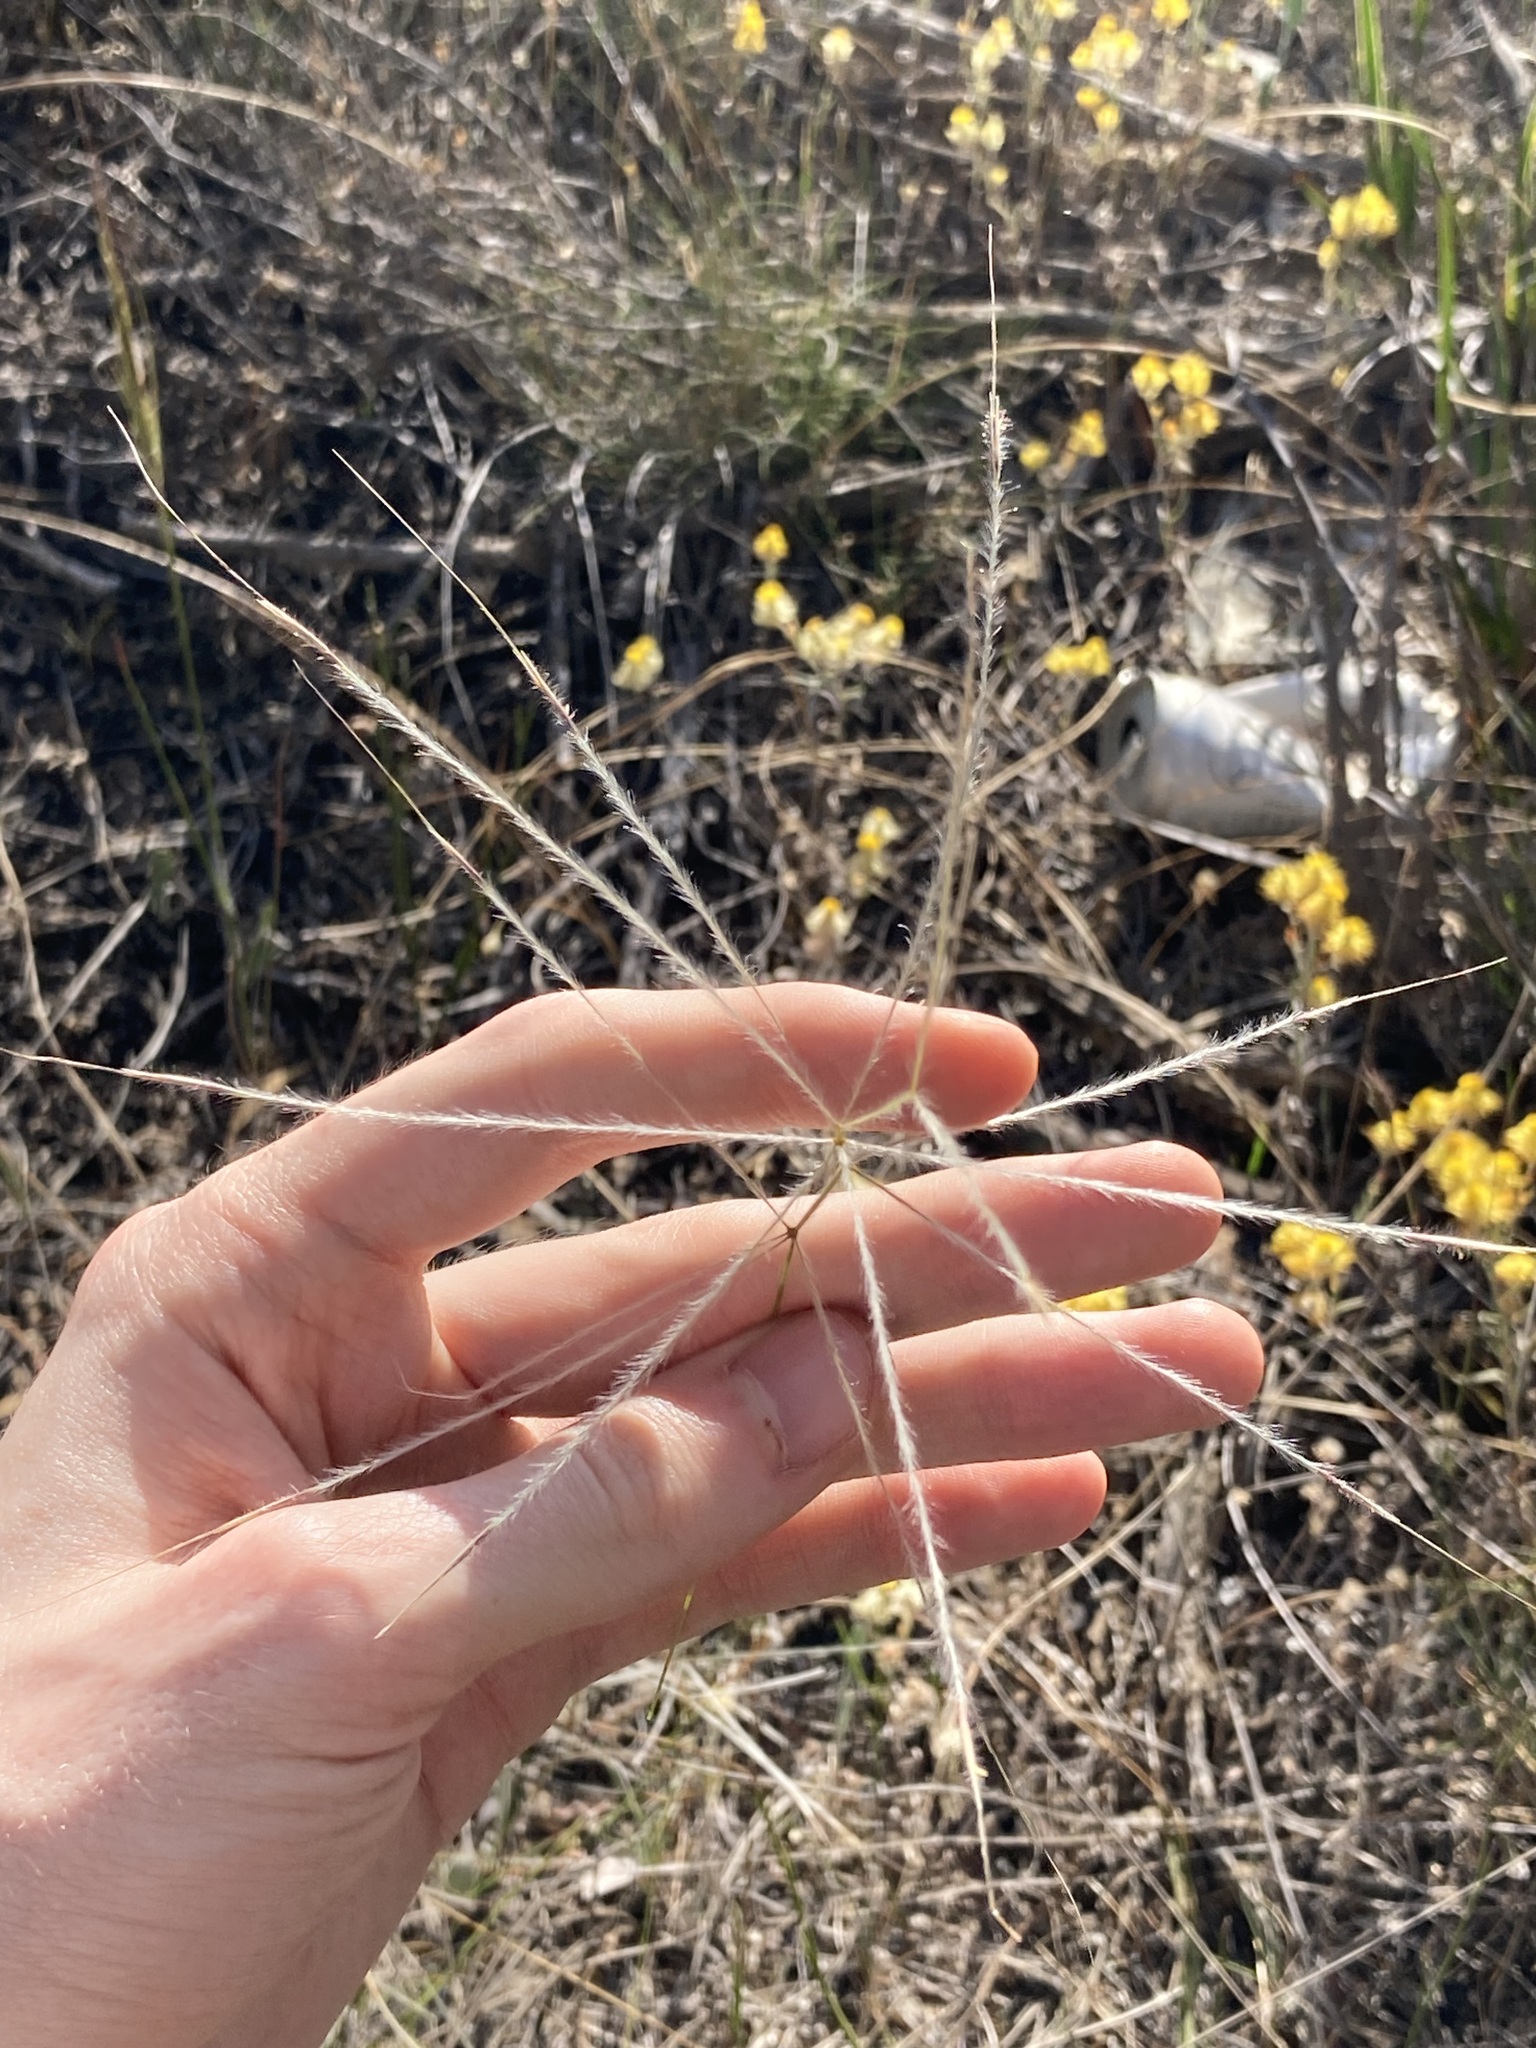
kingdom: Plantae
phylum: Tracheophyta
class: Liliopsida
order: Poales
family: Poaceae
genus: Austrostipa
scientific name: Austrostipa elegantissima
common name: Feather spear grass
